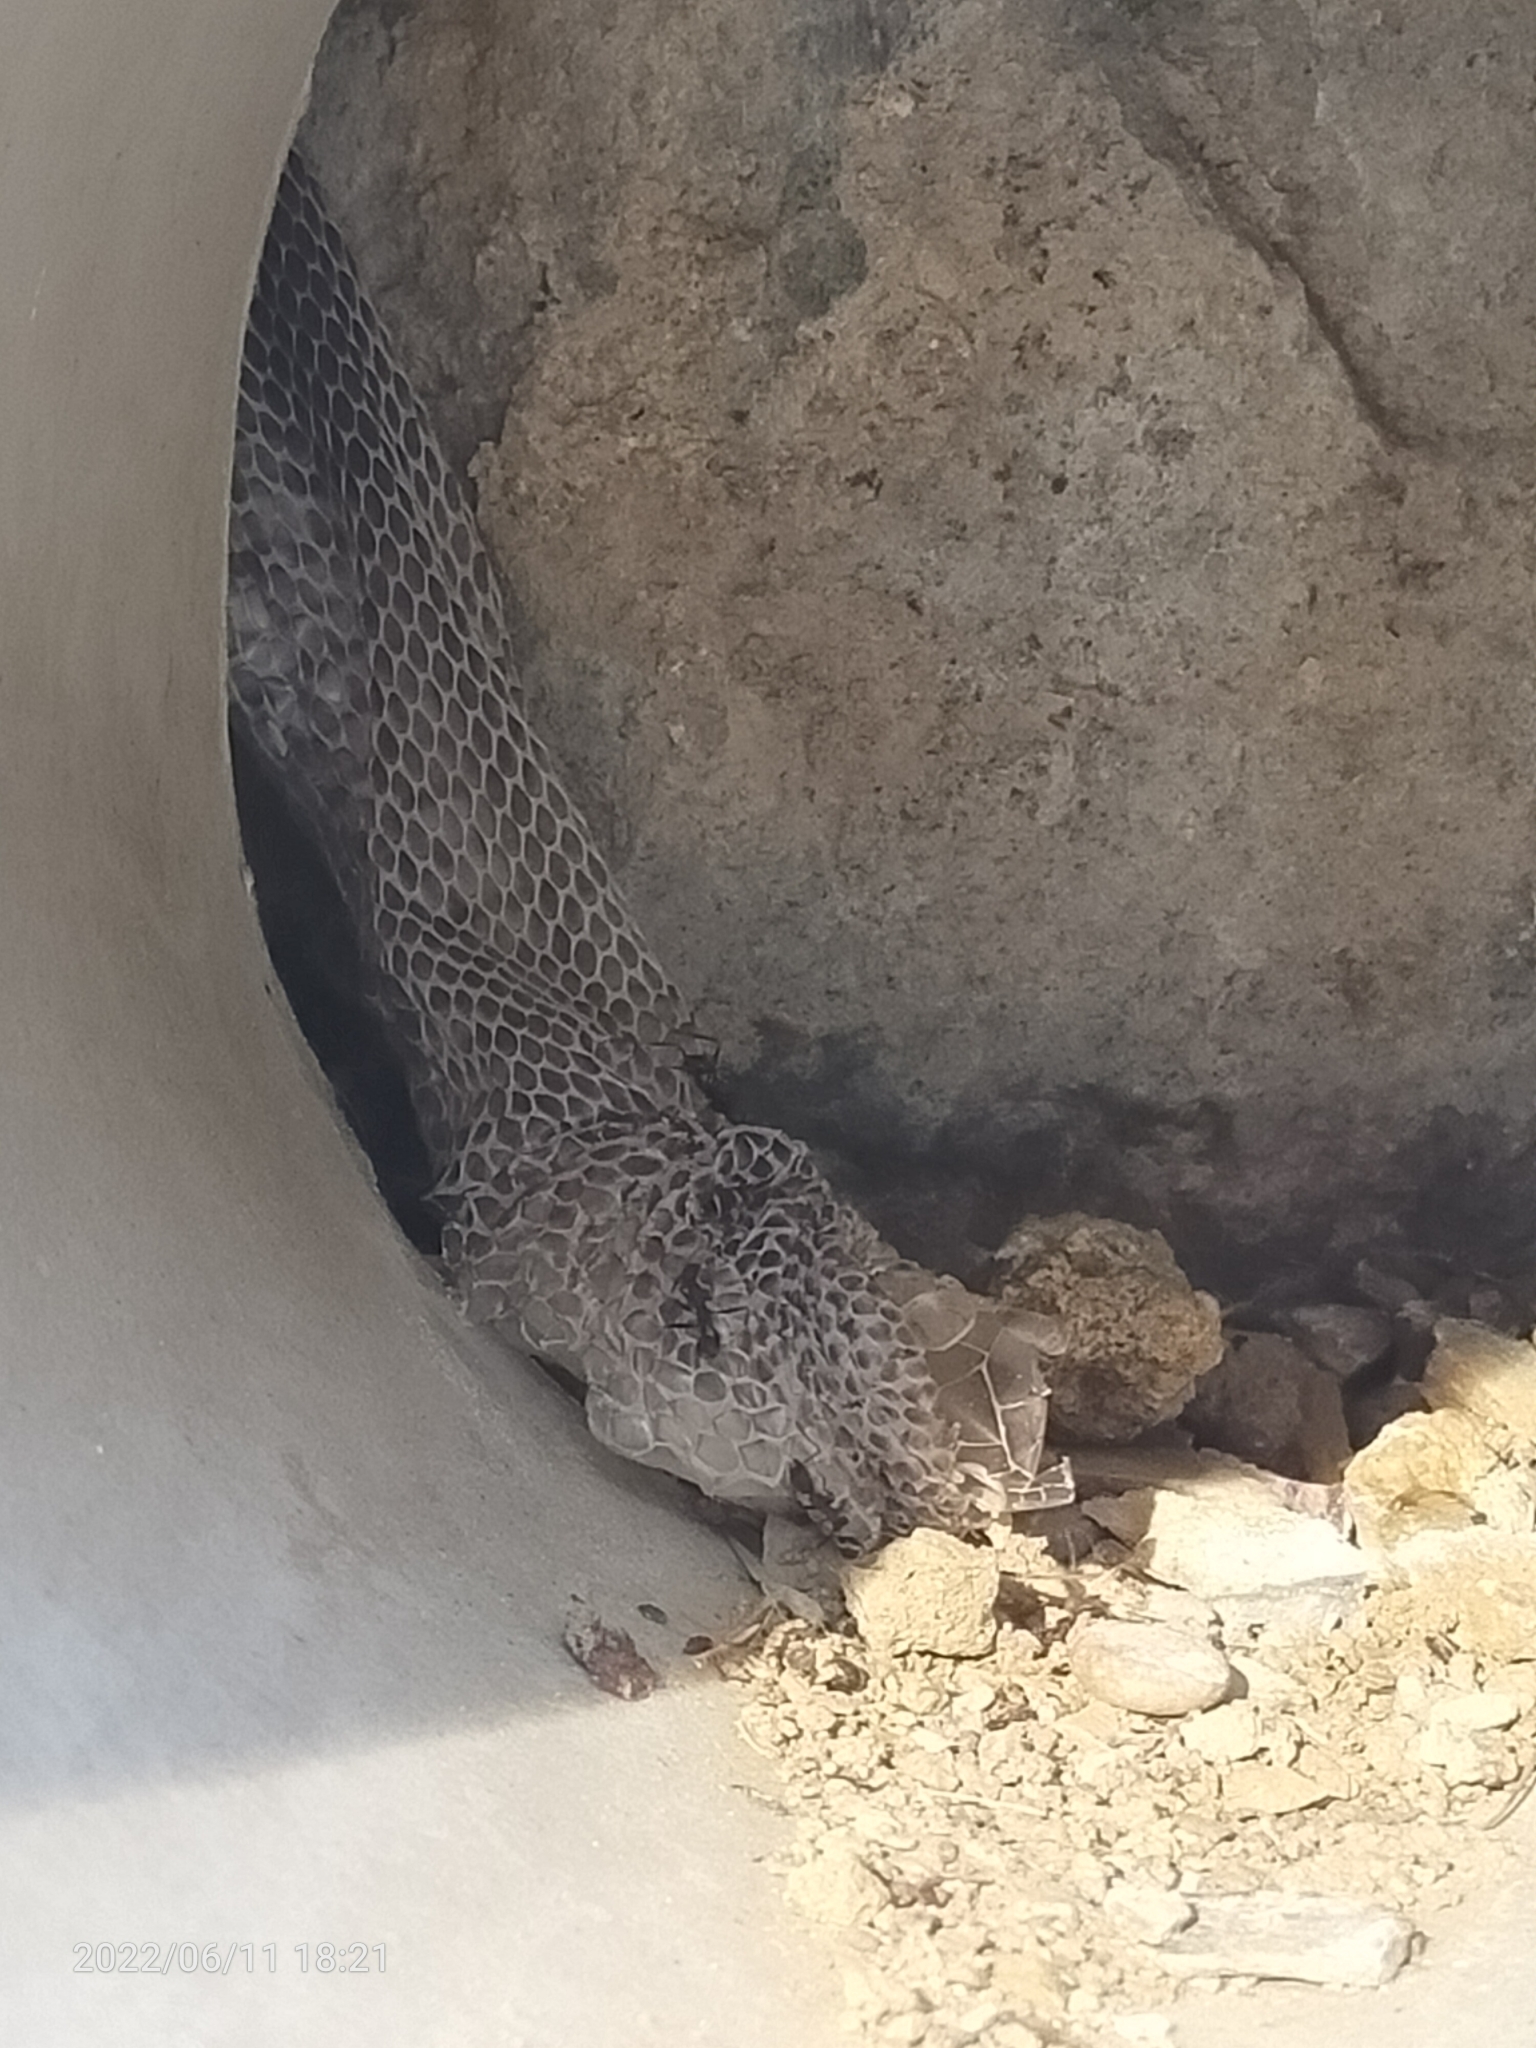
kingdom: Animalia
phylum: Chordata
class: Squamata
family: Colubridae
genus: Dolichophis
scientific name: Dolichophis caspius
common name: Large whip snake
